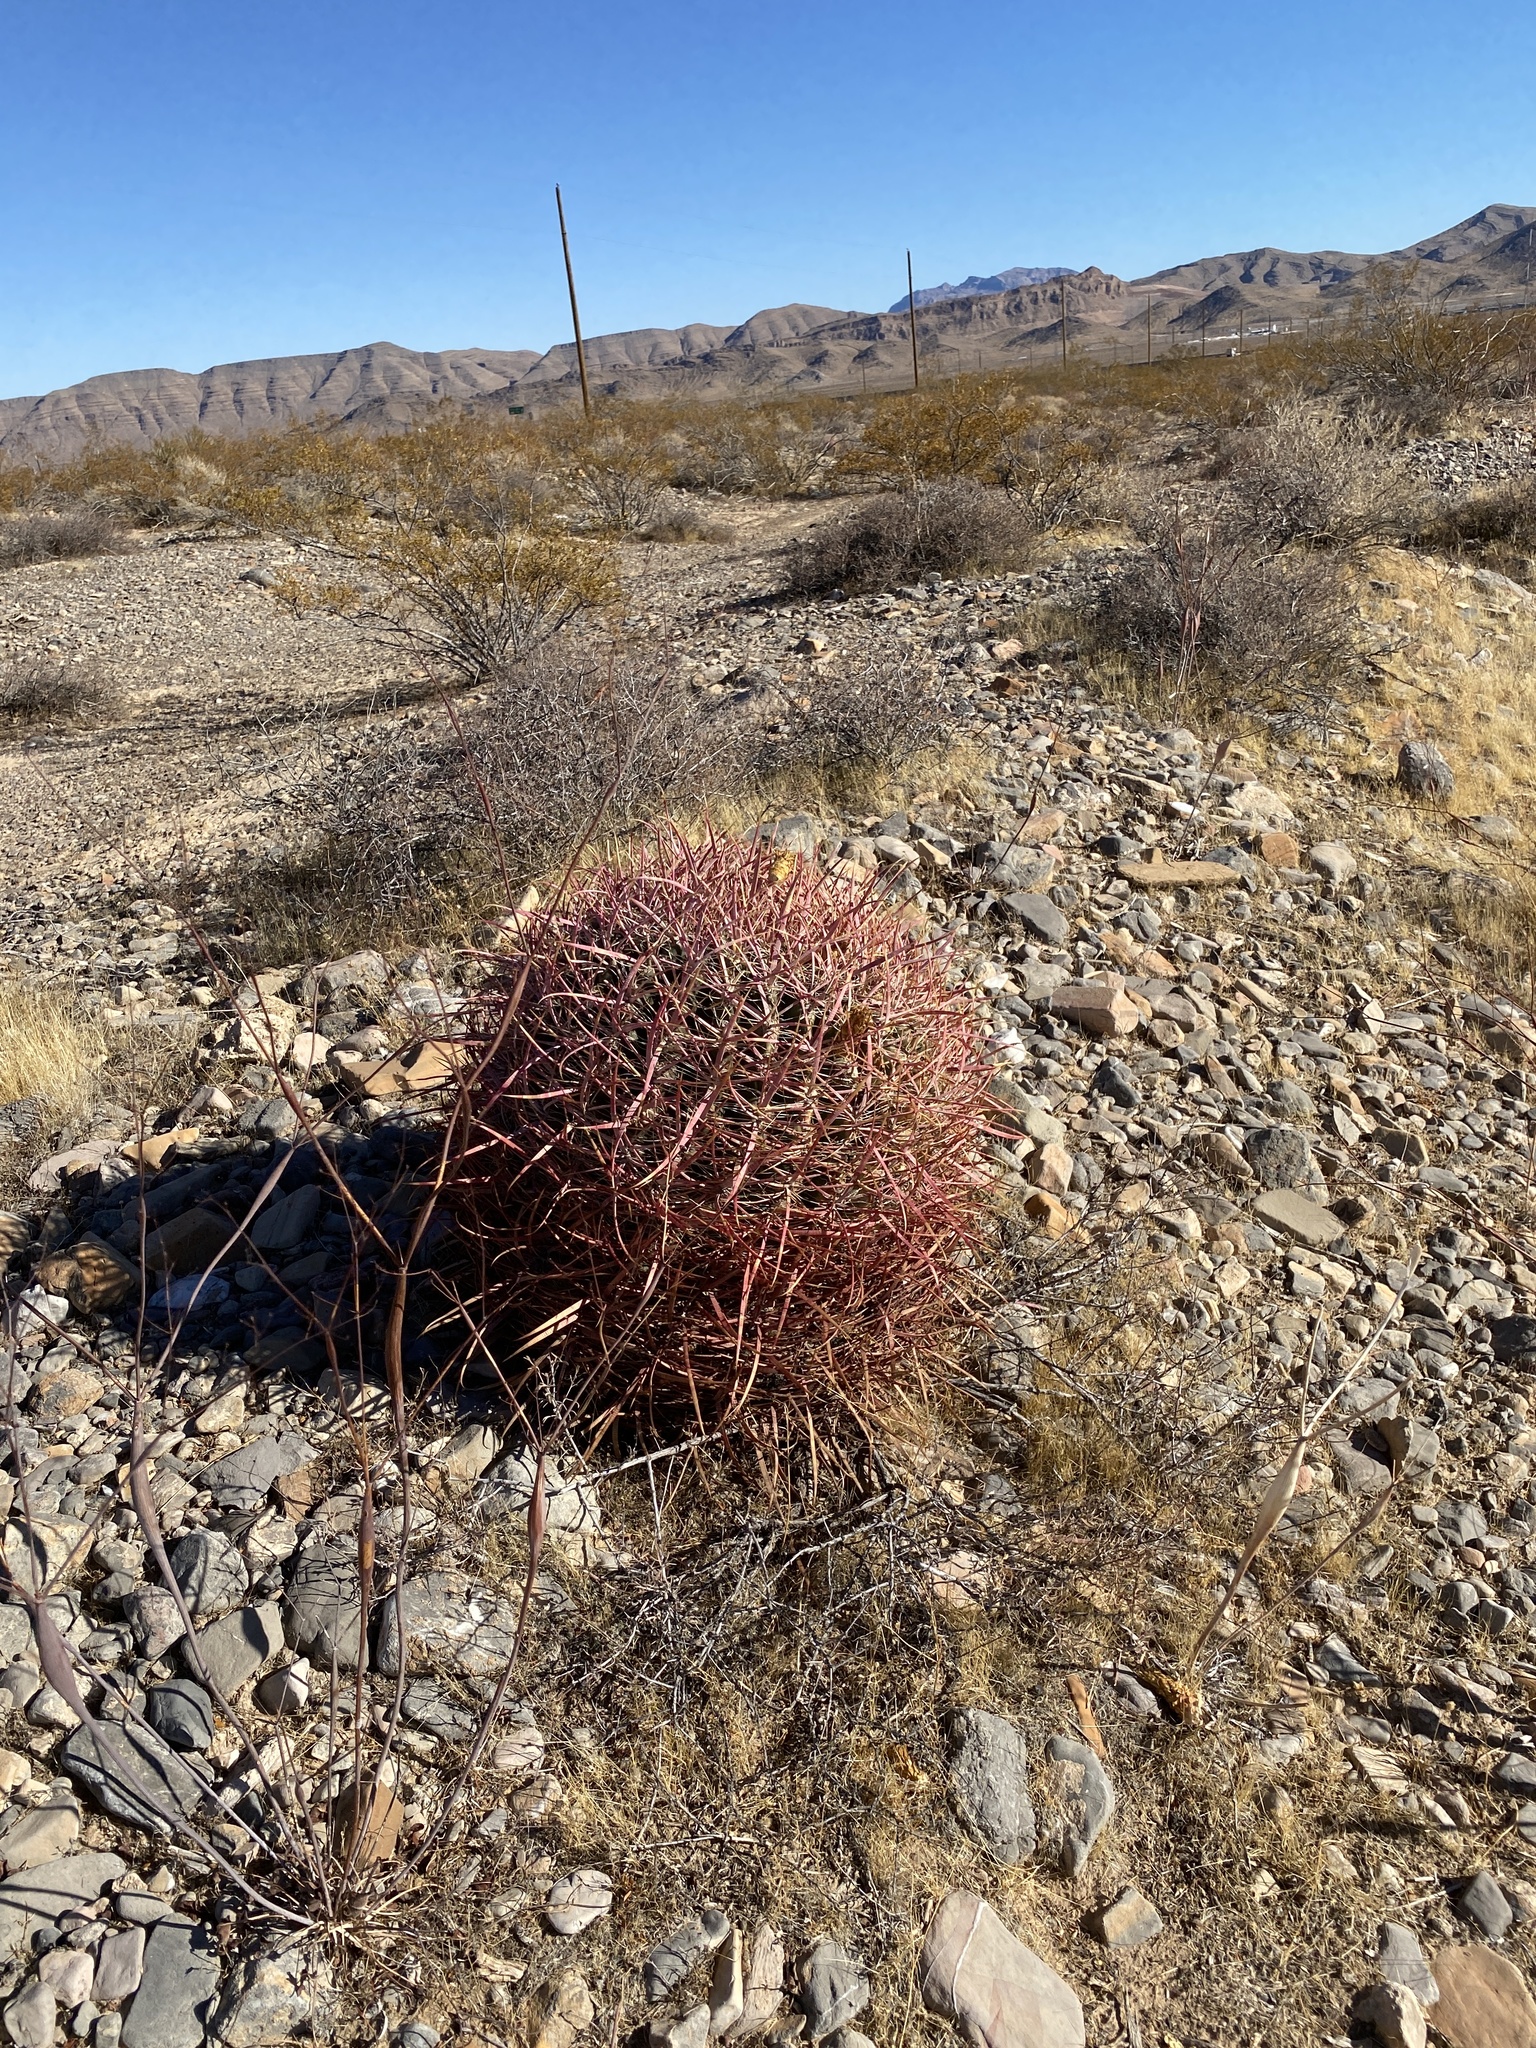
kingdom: Plantae
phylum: Tracheophyta
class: Magnoliopsida
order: Caryophyllales
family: Cactaceae
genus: Ferocactus
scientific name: Ferocactus cylindraceus
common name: California barrel cactus
